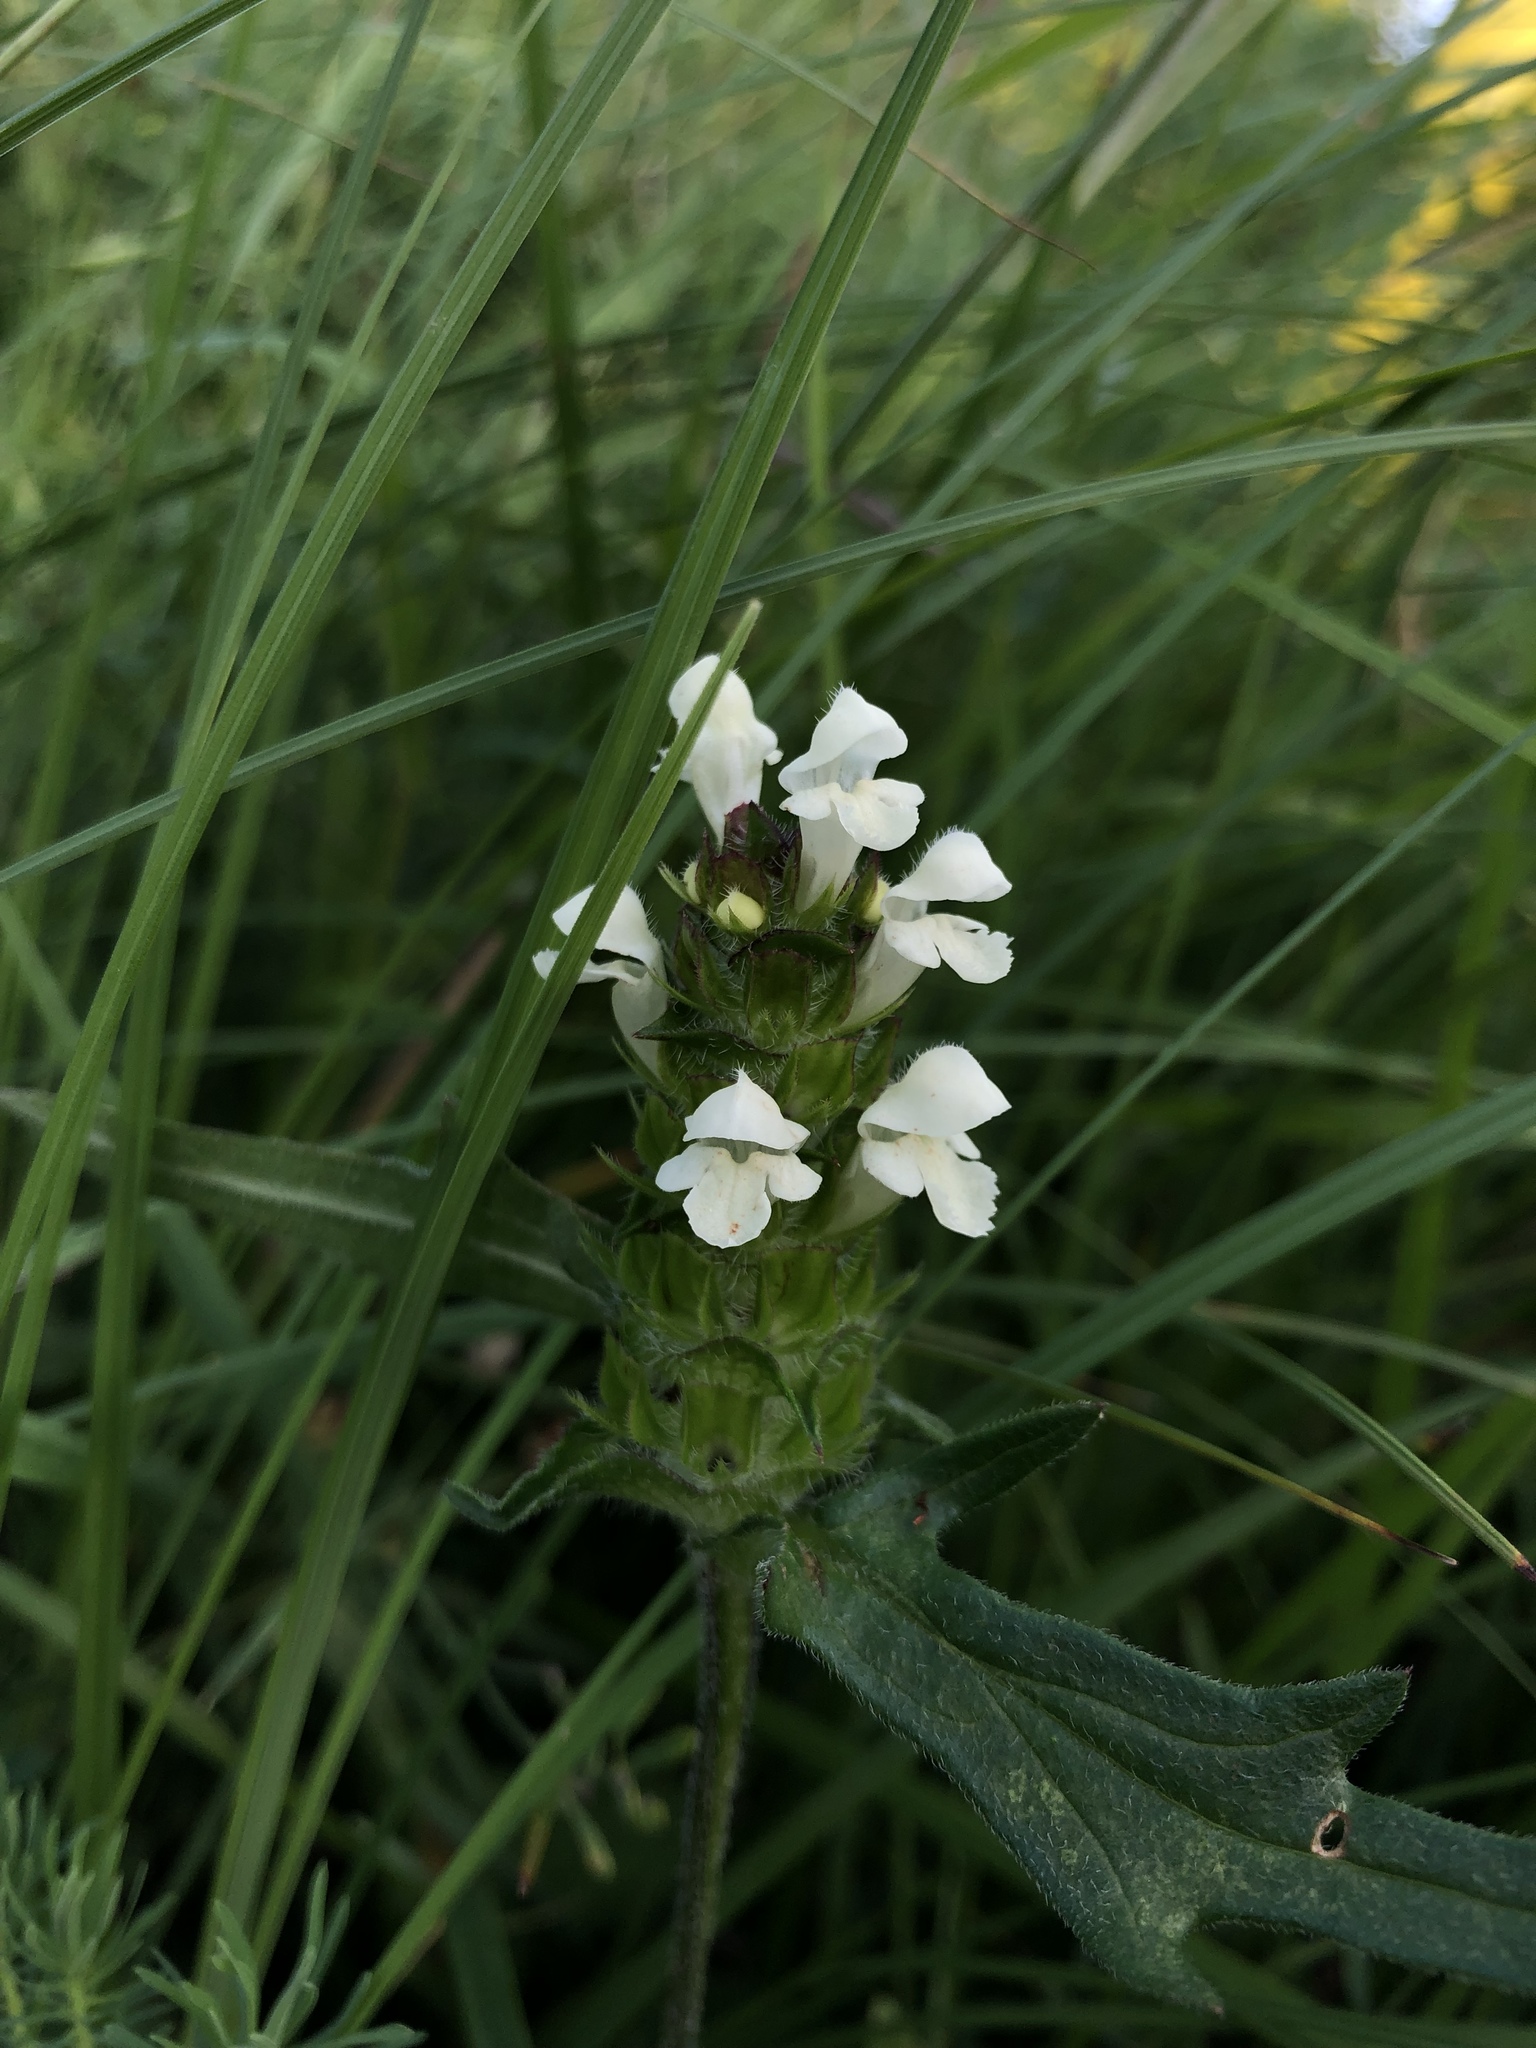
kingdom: Plantae
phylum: Tracheophyta
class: Magnoliopsida
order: Lamiales
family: Lamiaceae
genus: Prunella
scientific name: Prunella laciniata
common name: Cut-leaved selfheal
